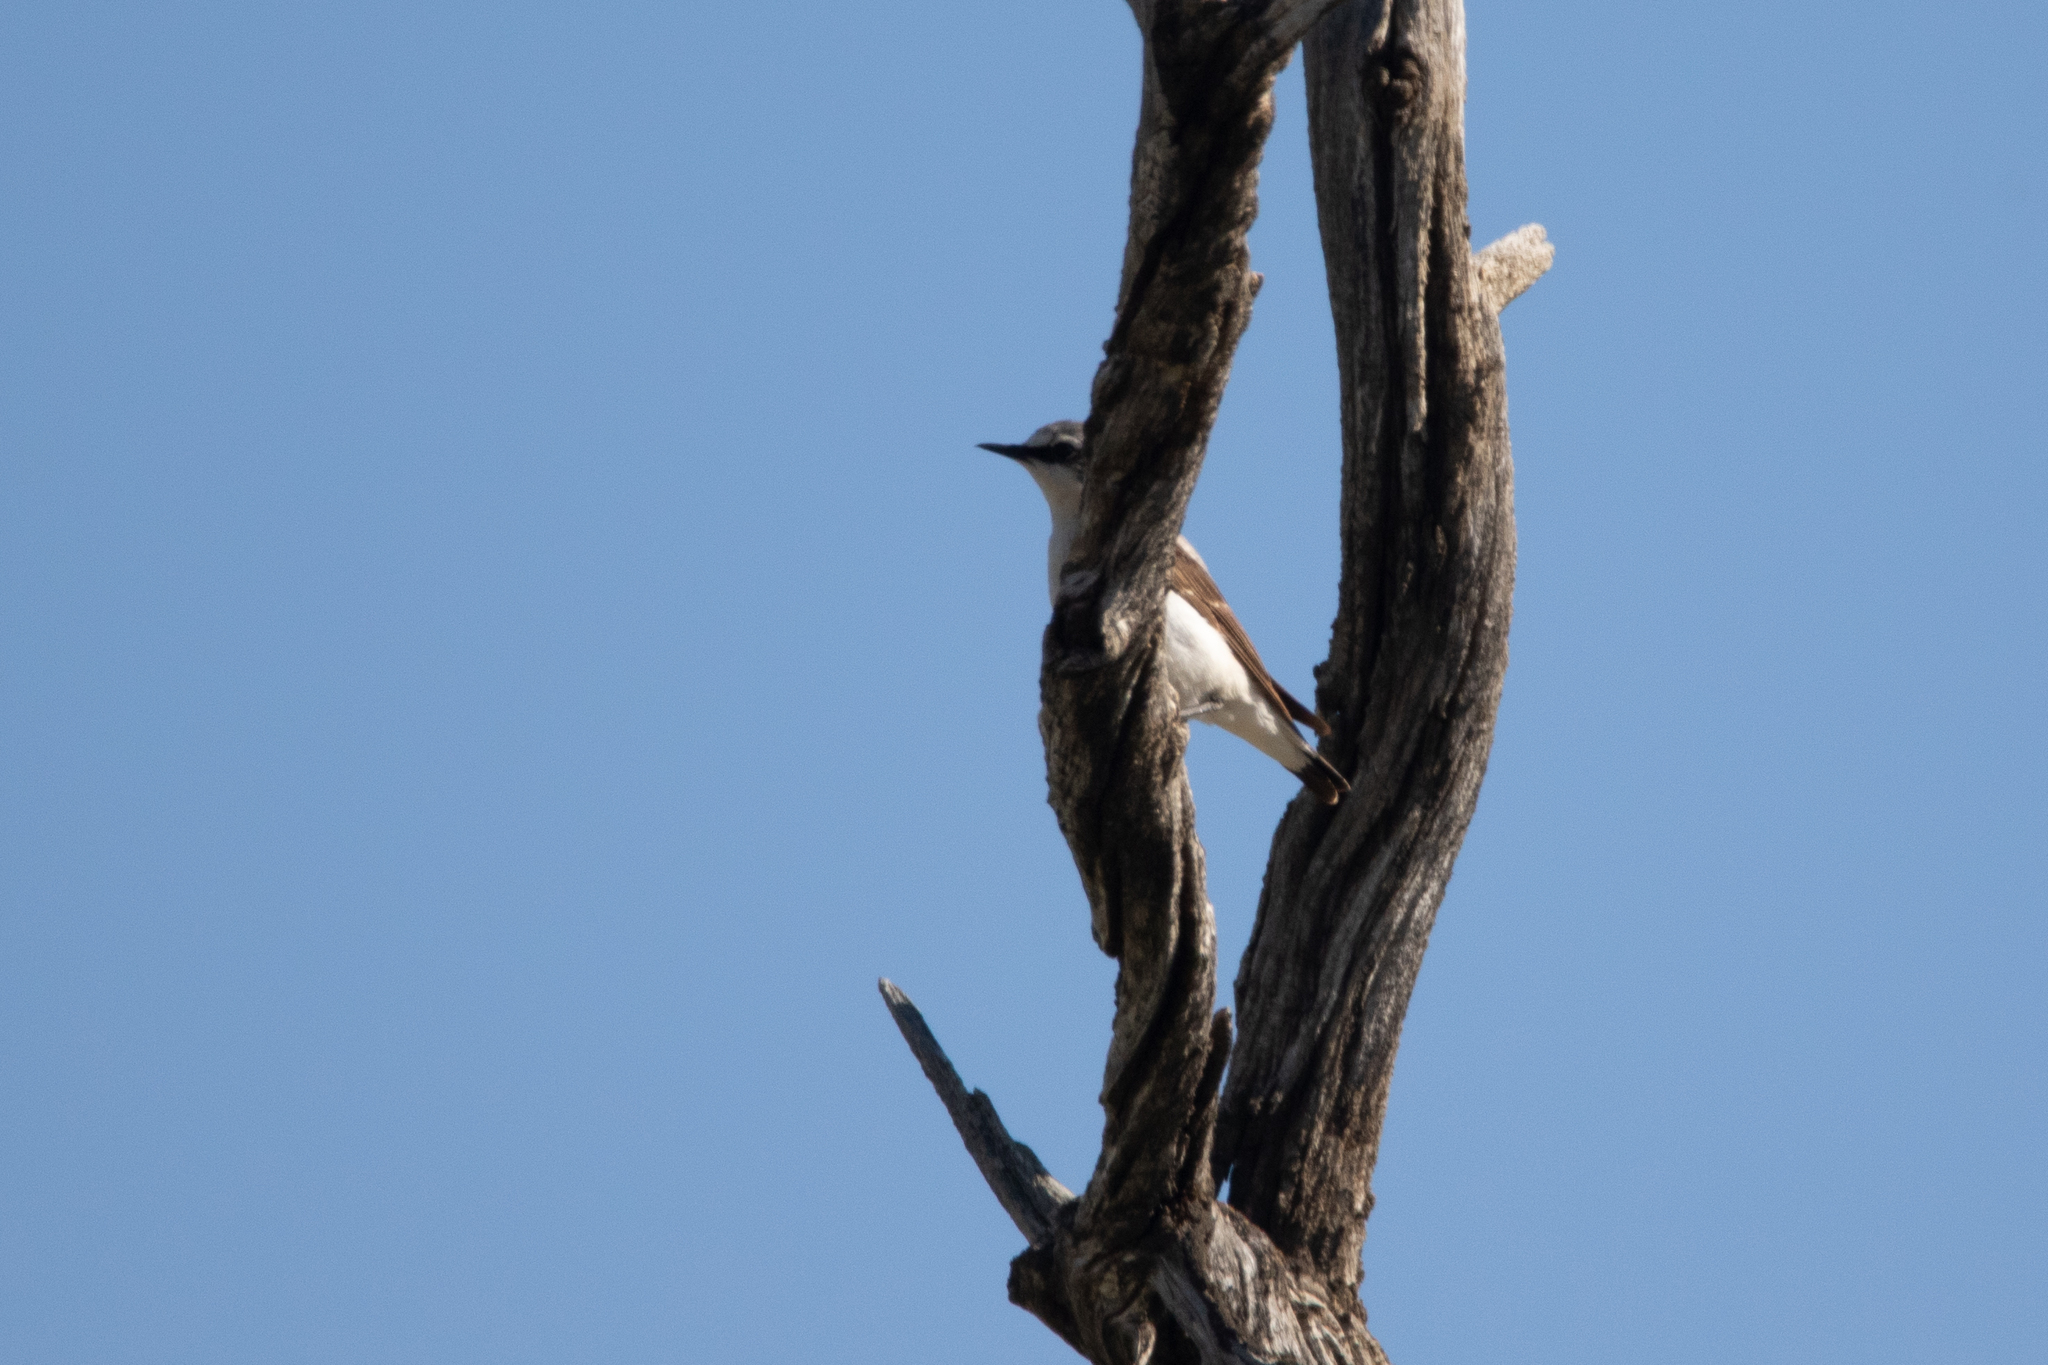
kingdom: Animalia
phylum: Chordata
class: Aves
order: Passeriformes
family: Muscicapidae
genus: Oenanthe
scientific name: Oenanthe oenanthe
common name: Northern wheatear
